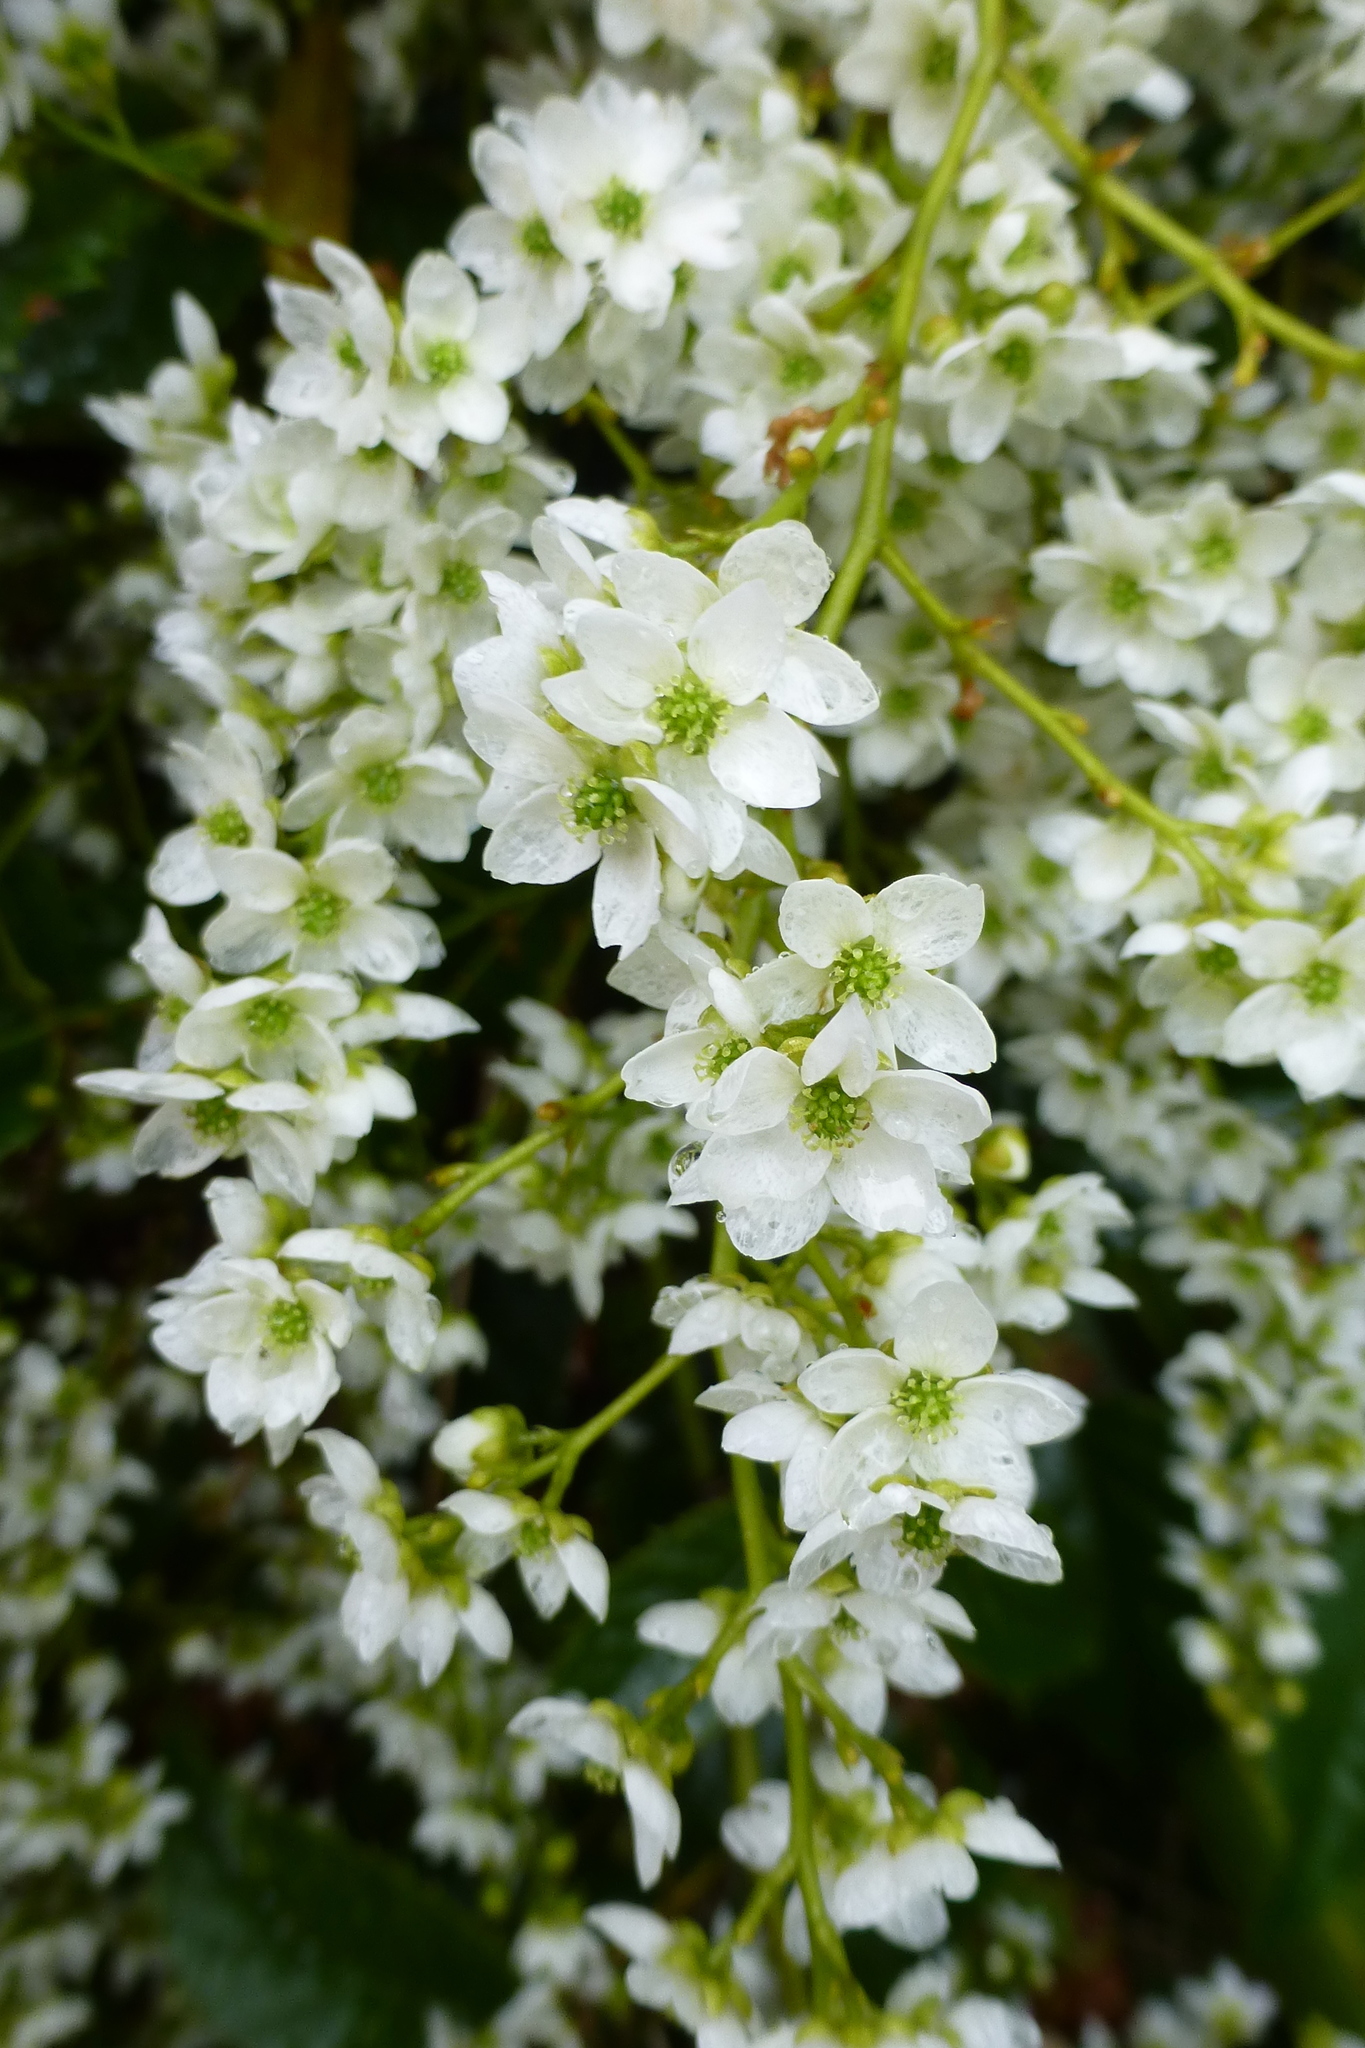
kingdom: Plantae
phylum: Tracheophyta
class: Magnoliopsida
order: Rosales
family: Rosaceae
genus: Rubus
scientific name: Rubus cissoides
